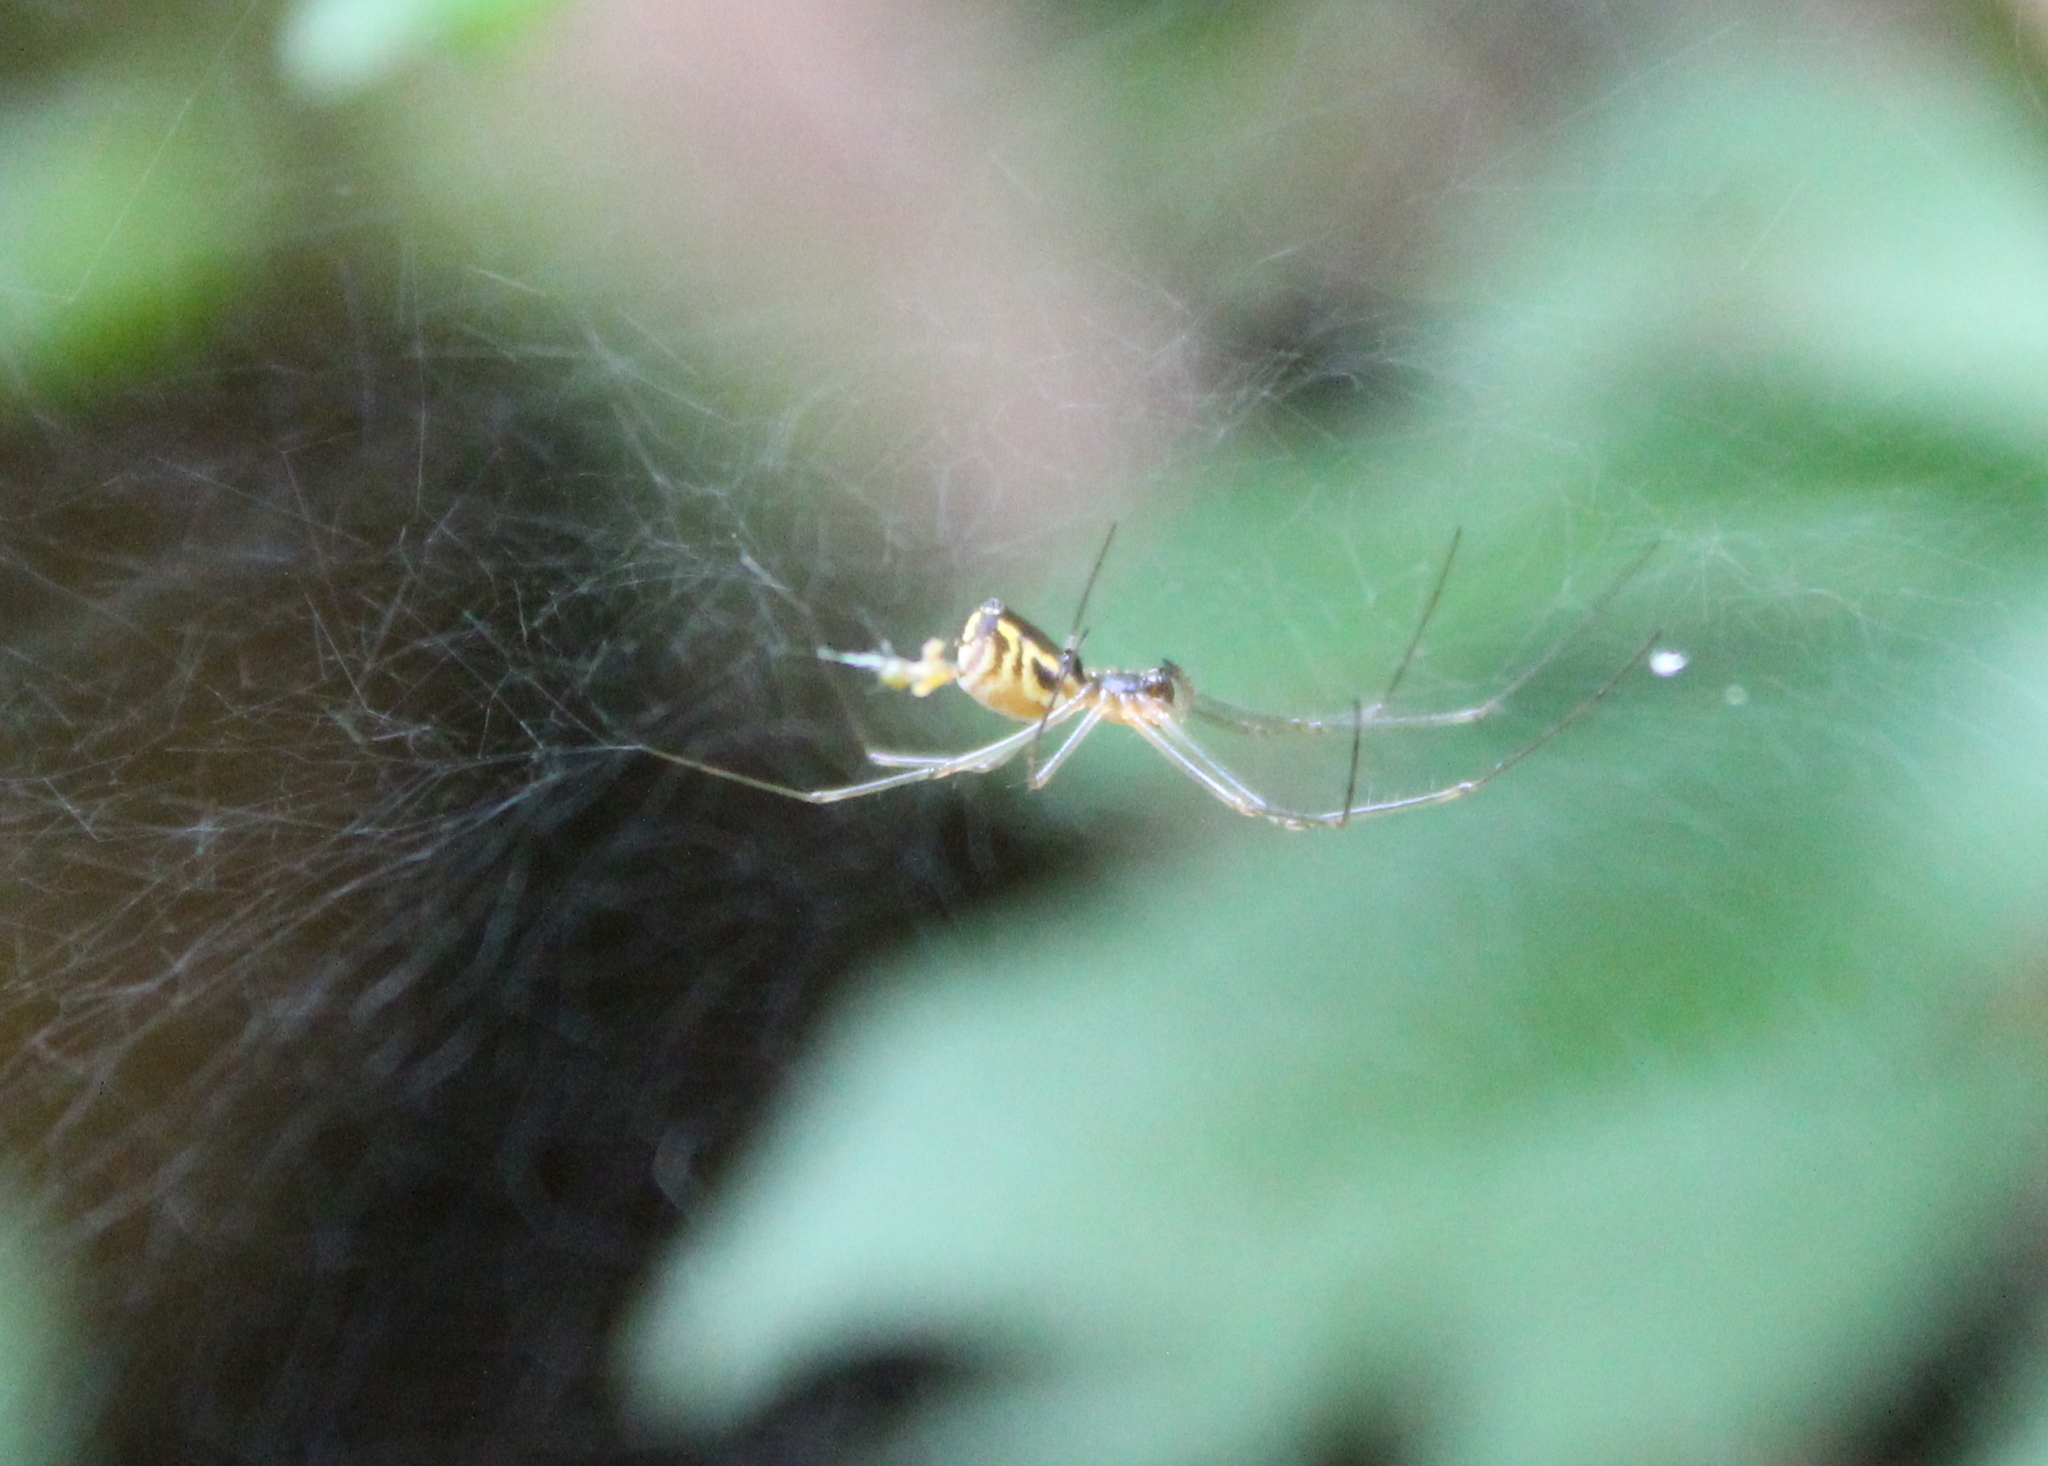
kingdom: Animalia
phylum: Arthropoda
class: Arachnida
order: Araneae
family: Linyphiidae
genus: Neriene
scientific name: Neriene radiata
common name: Filmy dome spider
